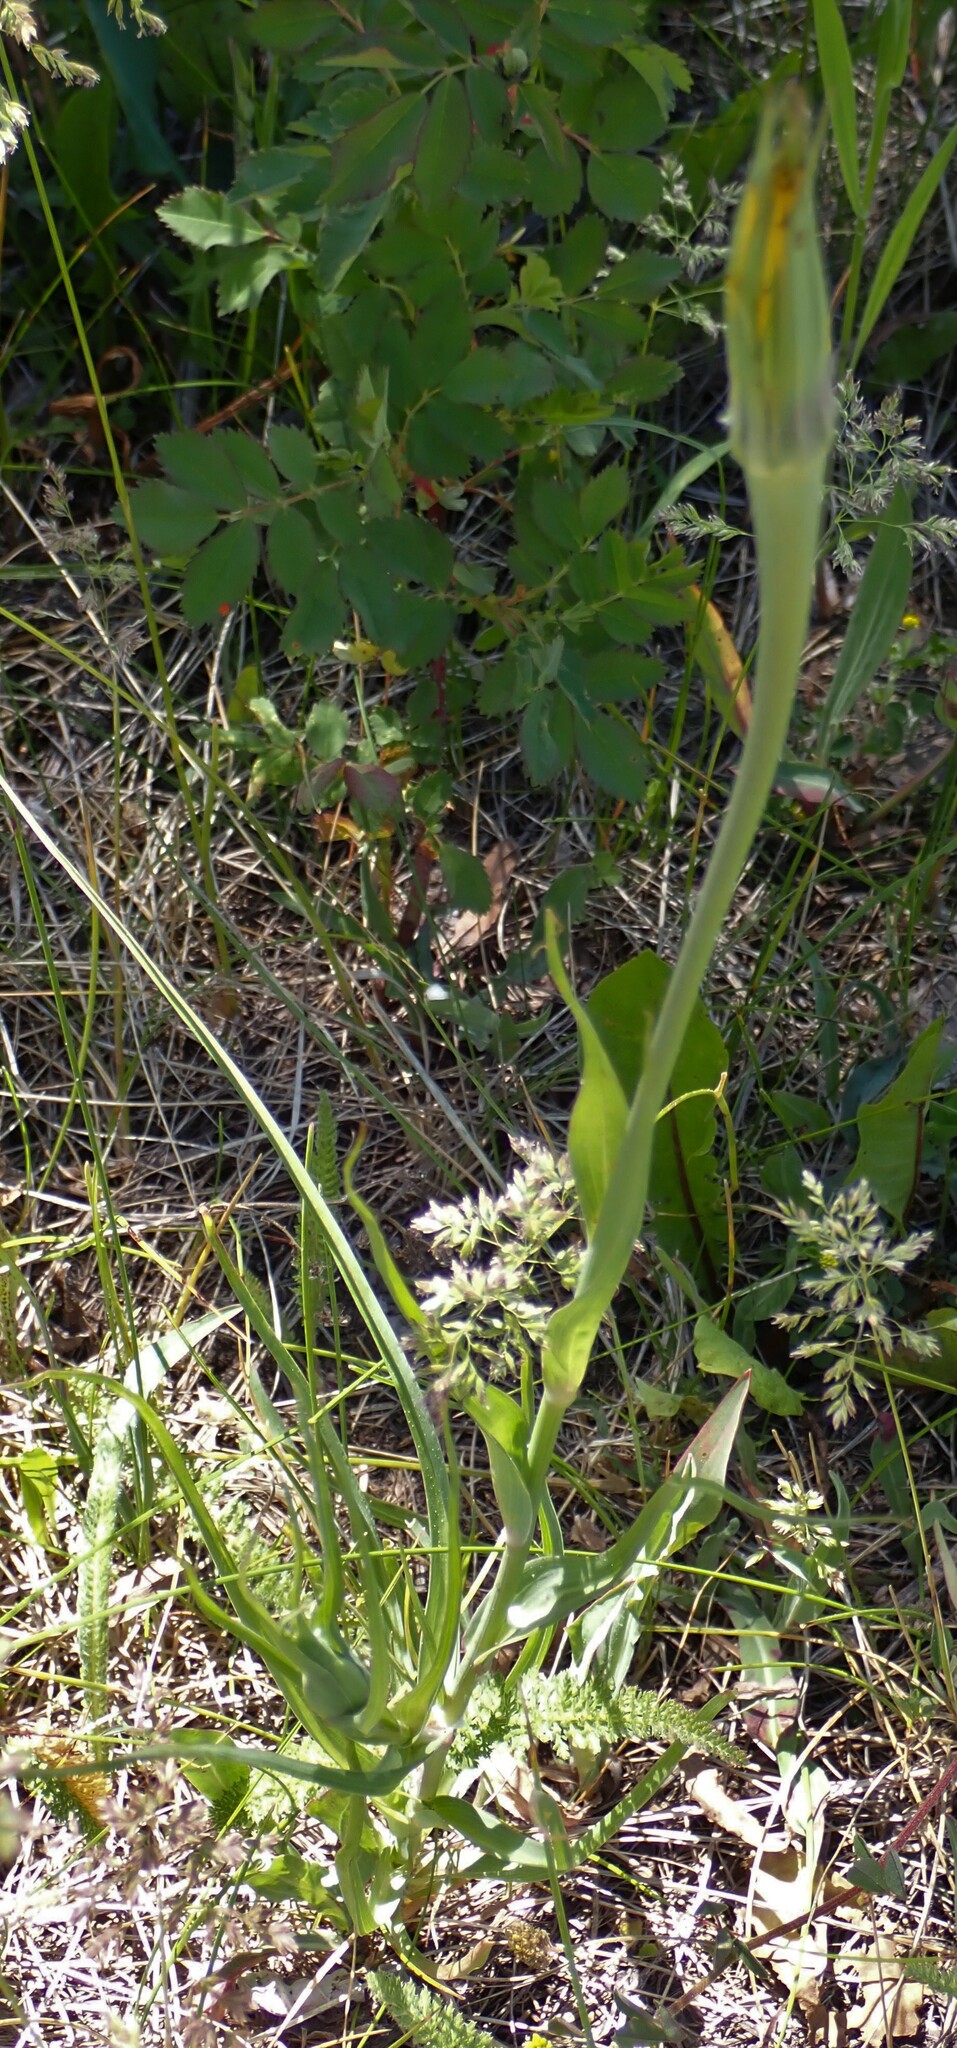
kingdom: Plantae
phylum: Tracheophyta
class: Magnoliopsida
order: Asterales
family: Asteraceae
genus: Tragopogon
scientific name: Tragopogon dubius
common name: Yellow salsify
